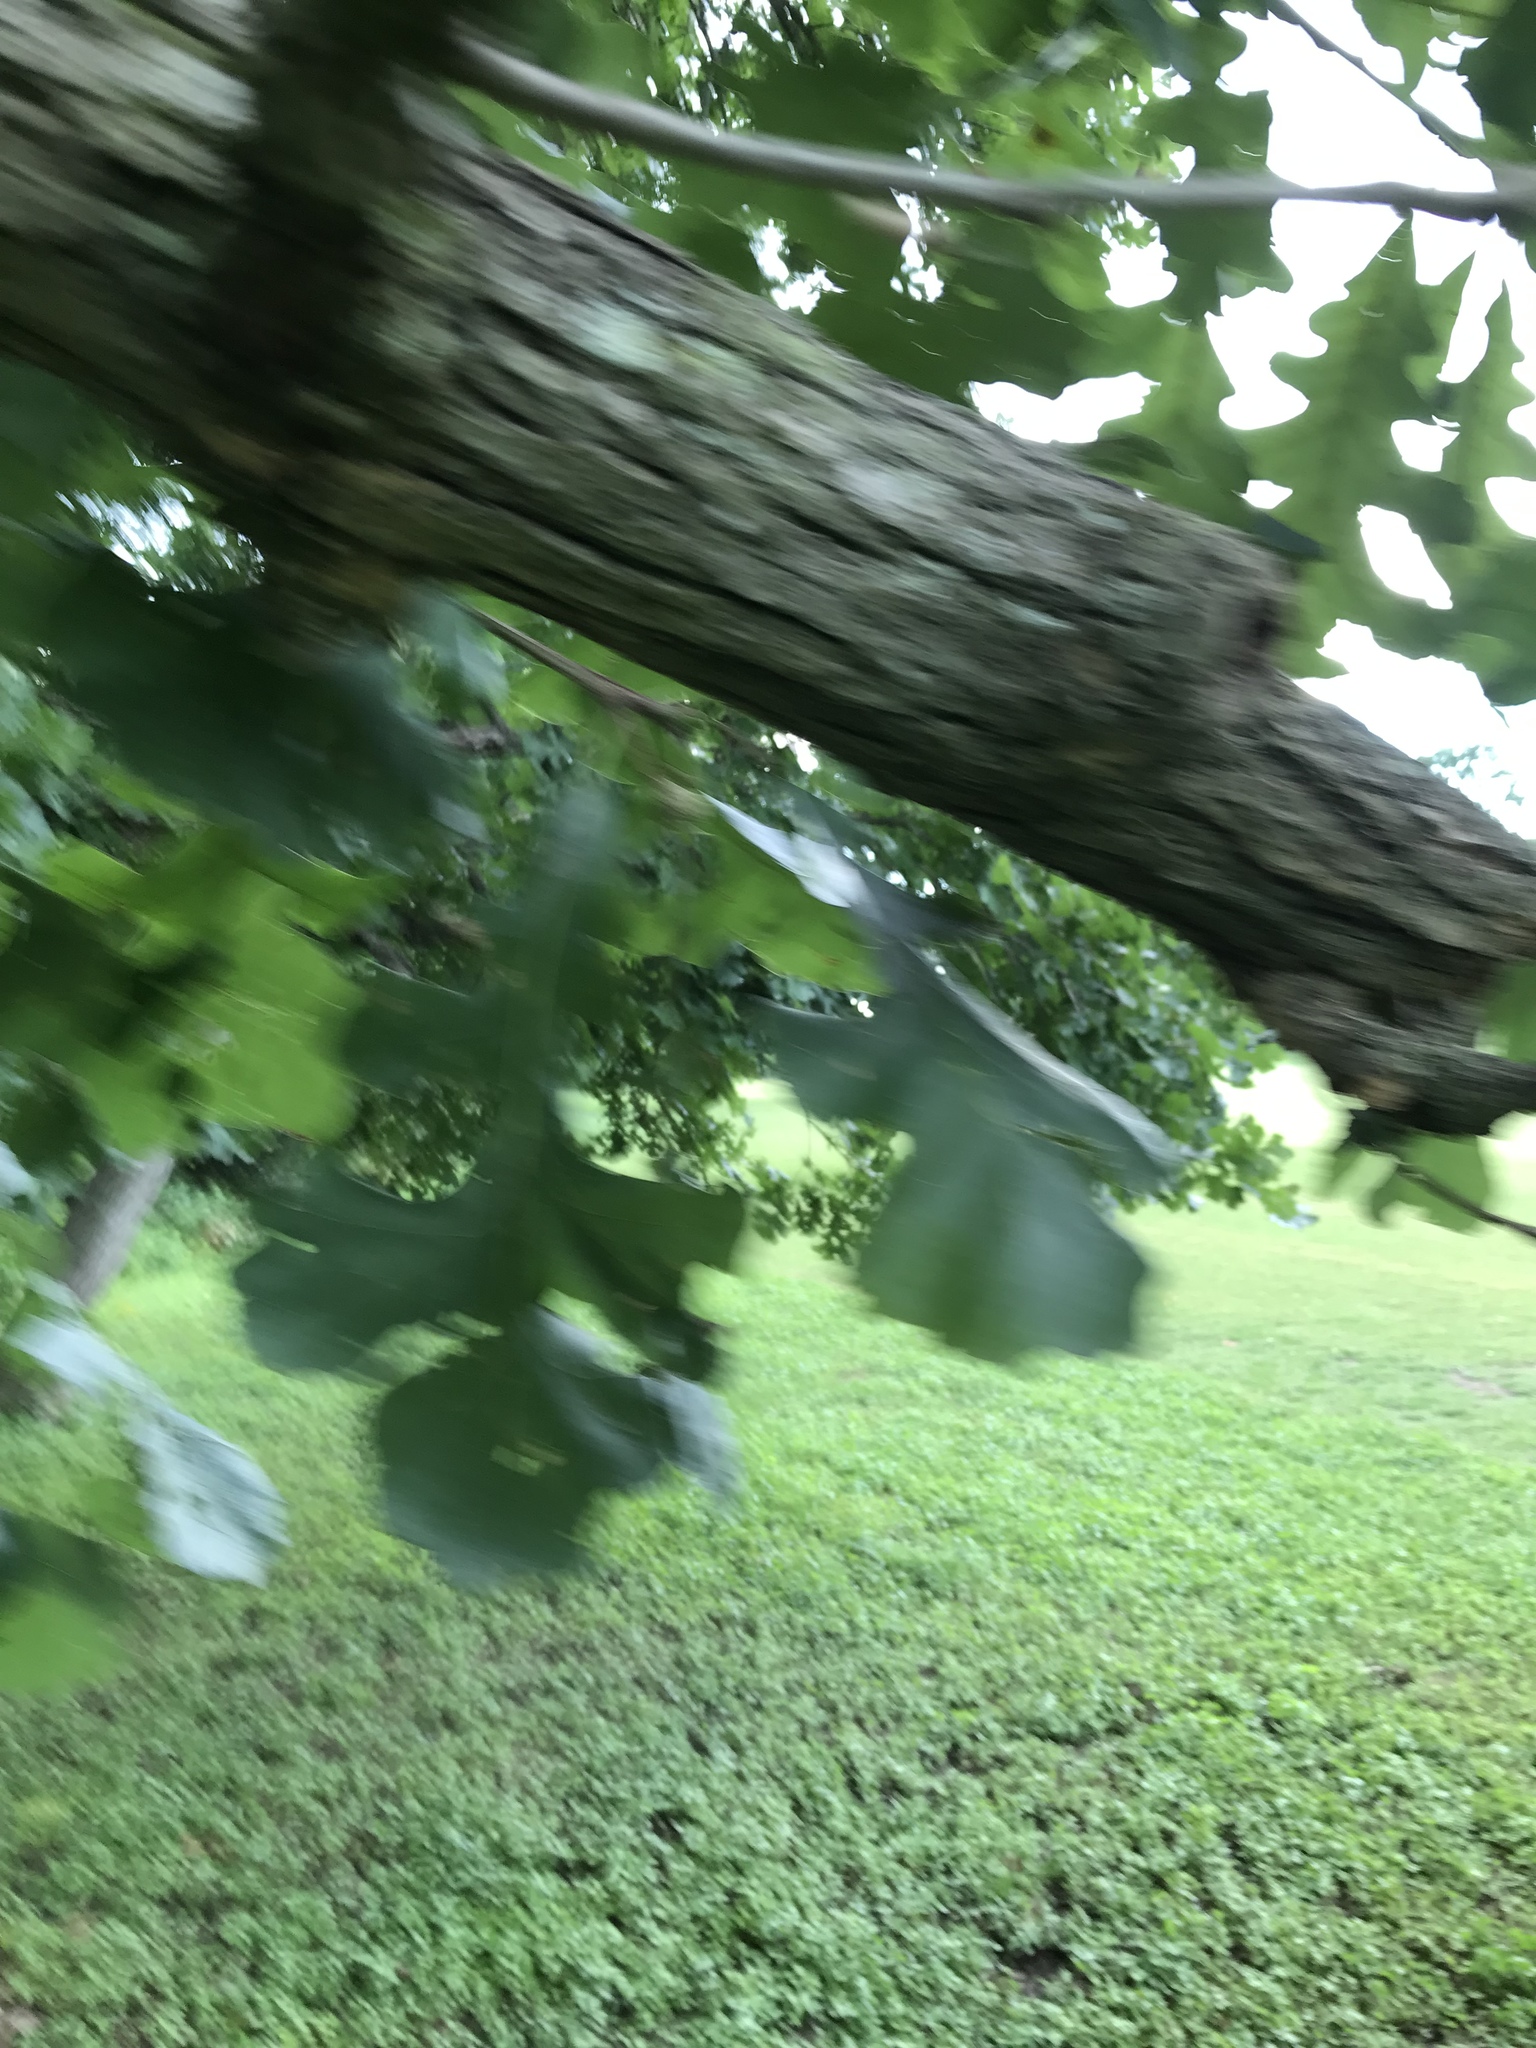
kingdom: Plantae
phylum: Tracheophyta
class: Magnoliopsida
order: Fagales
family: Fagaceae
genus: Quercus
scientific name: Quercus macrocarpa
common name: Bur oak
